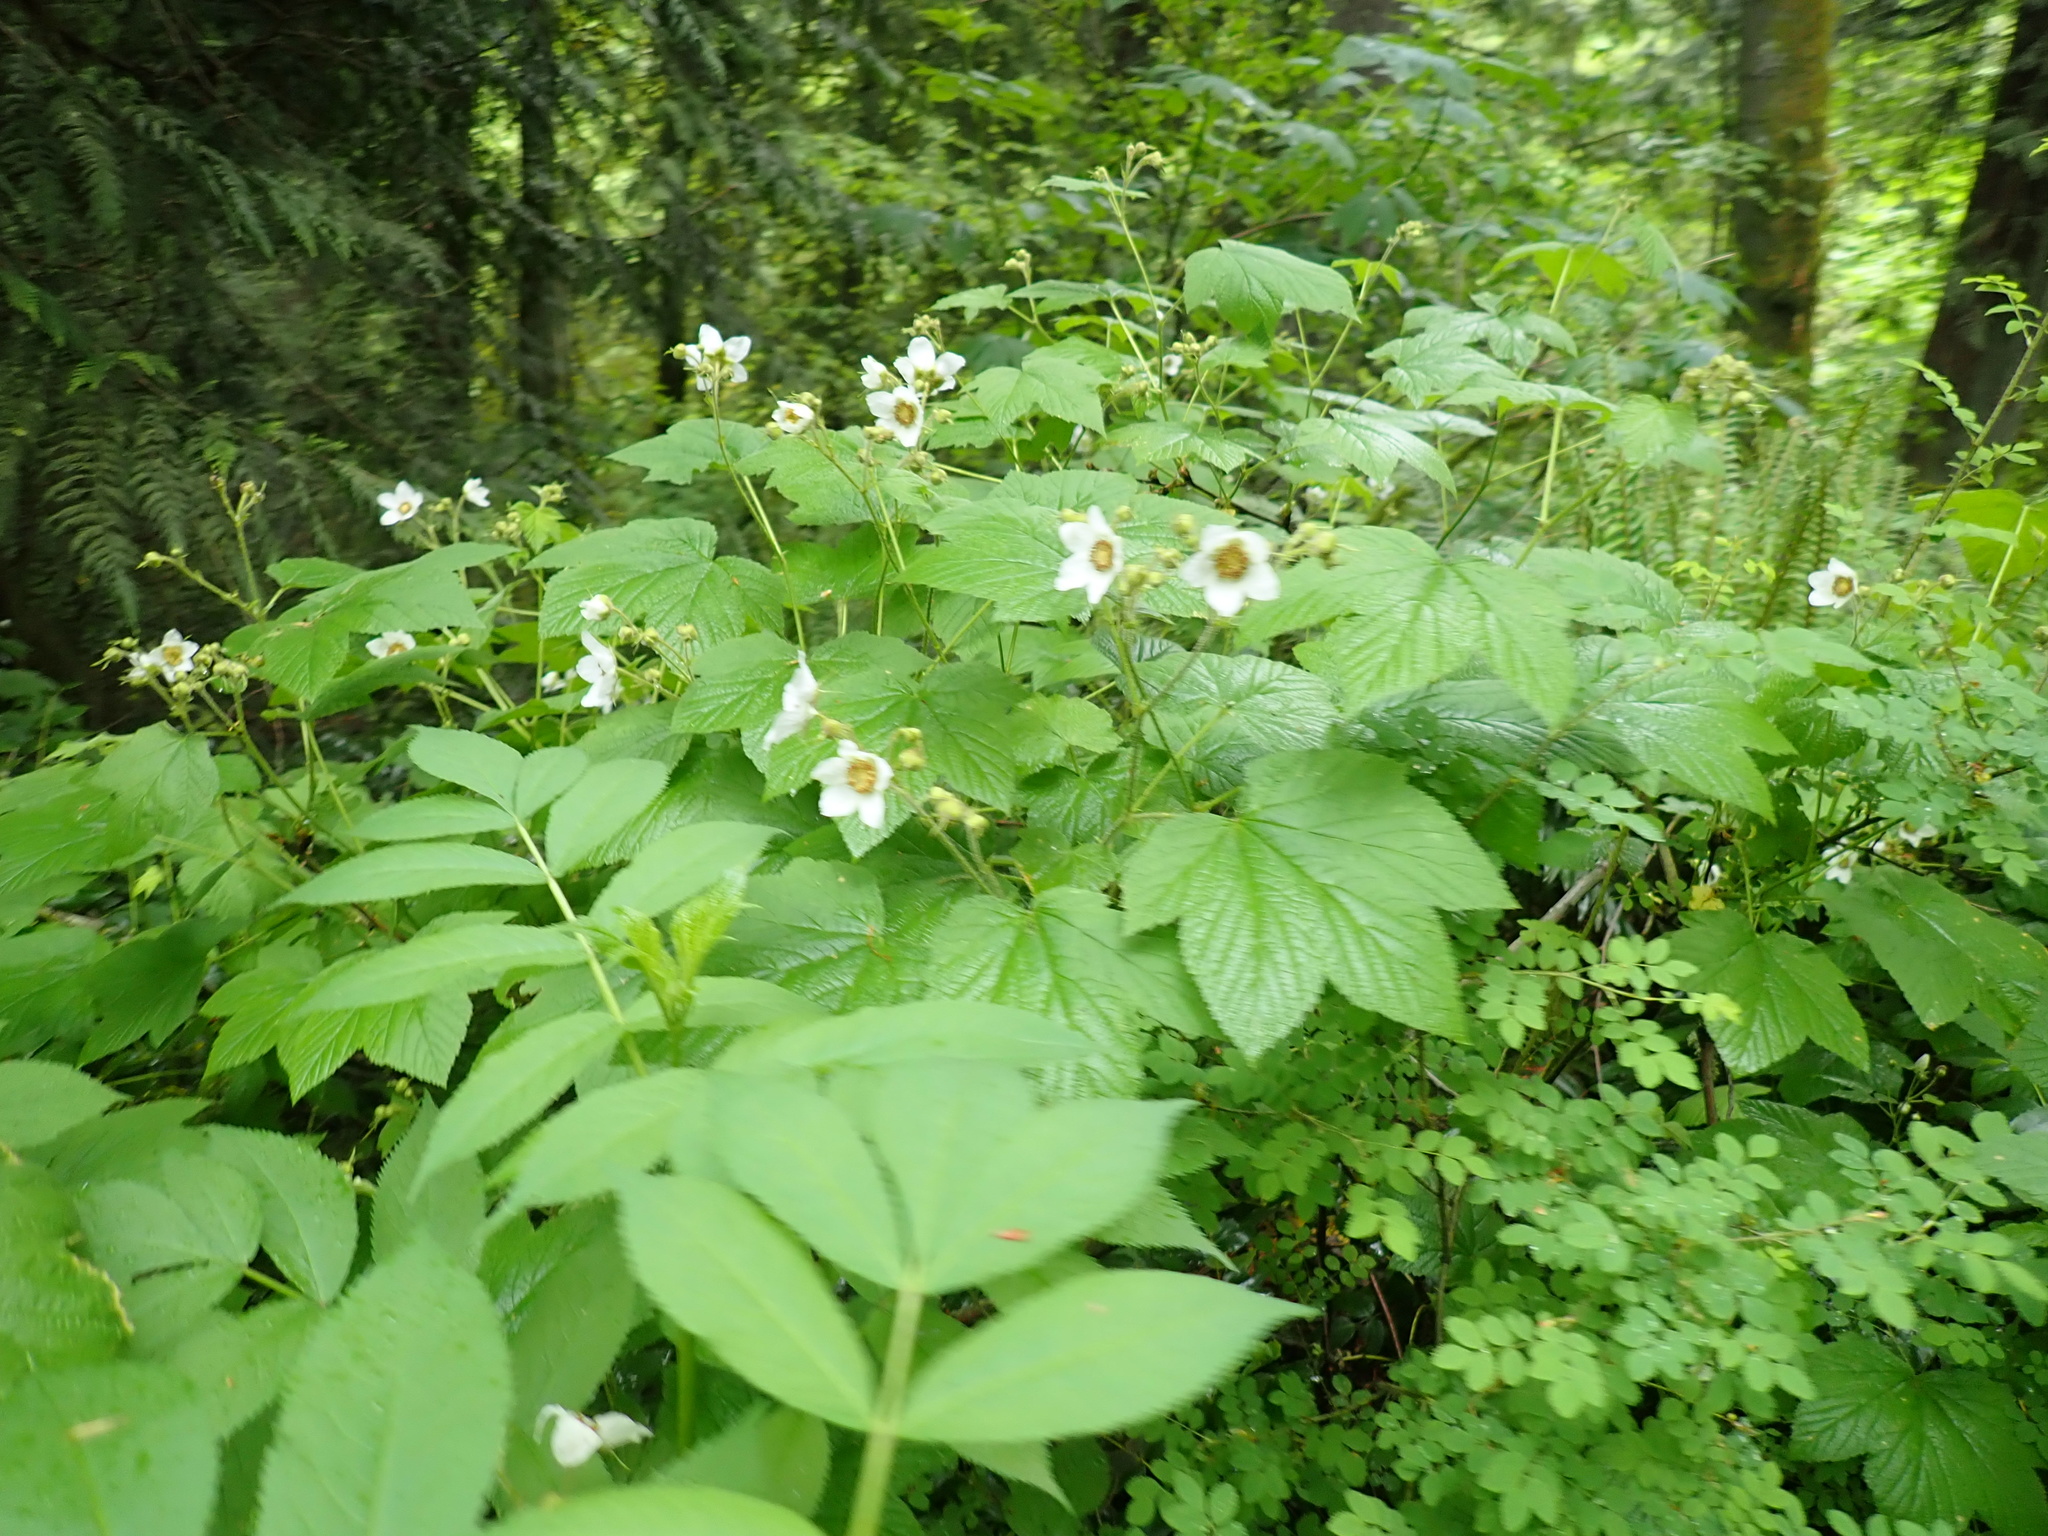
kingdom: Plantae
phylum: Tracheophyta
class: Magnoliopsida
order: Rosales
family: Rosaceae
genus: Rubus
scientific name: Rubus parviflorus
